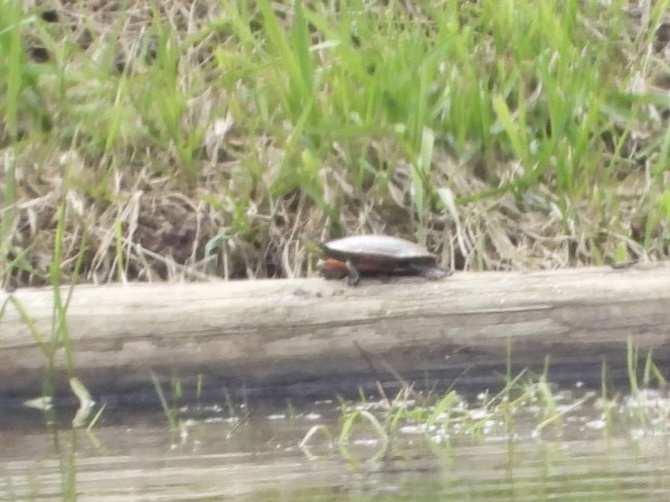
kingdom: Animalia
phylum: Chordata
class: Testudines
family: Emydidae
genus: Chrysemys
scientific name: Chrysemys picta
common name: Painted turtle
